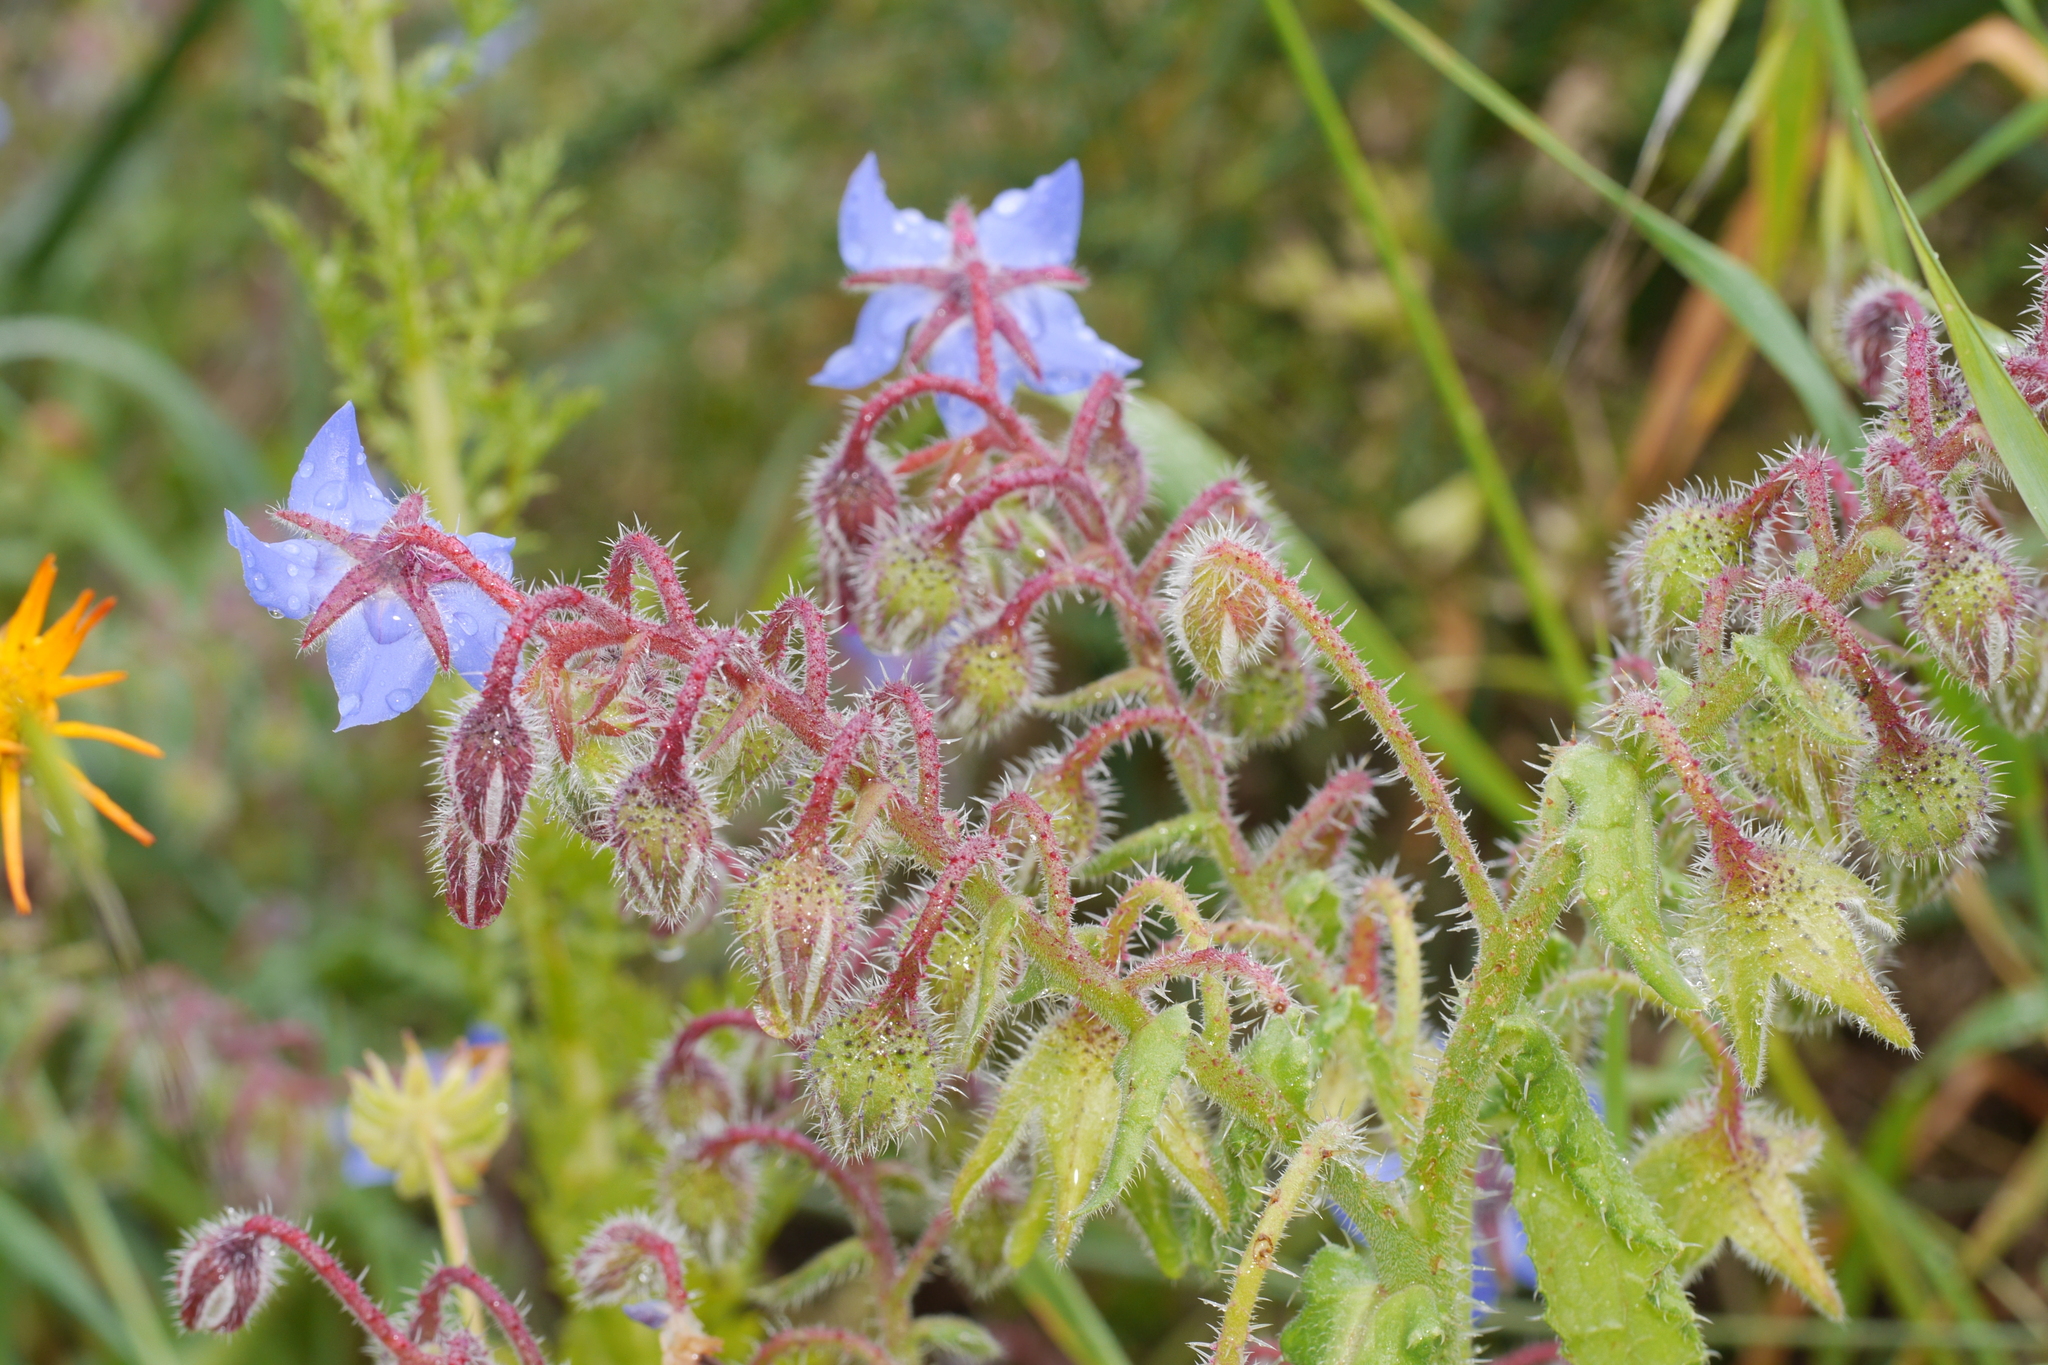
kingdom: Plantae
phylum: Tracheophyta
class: Magnoliopsida
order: Boraginales
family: Boraginaceae
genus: Borago
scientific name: Borago officinalis
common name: Borage
